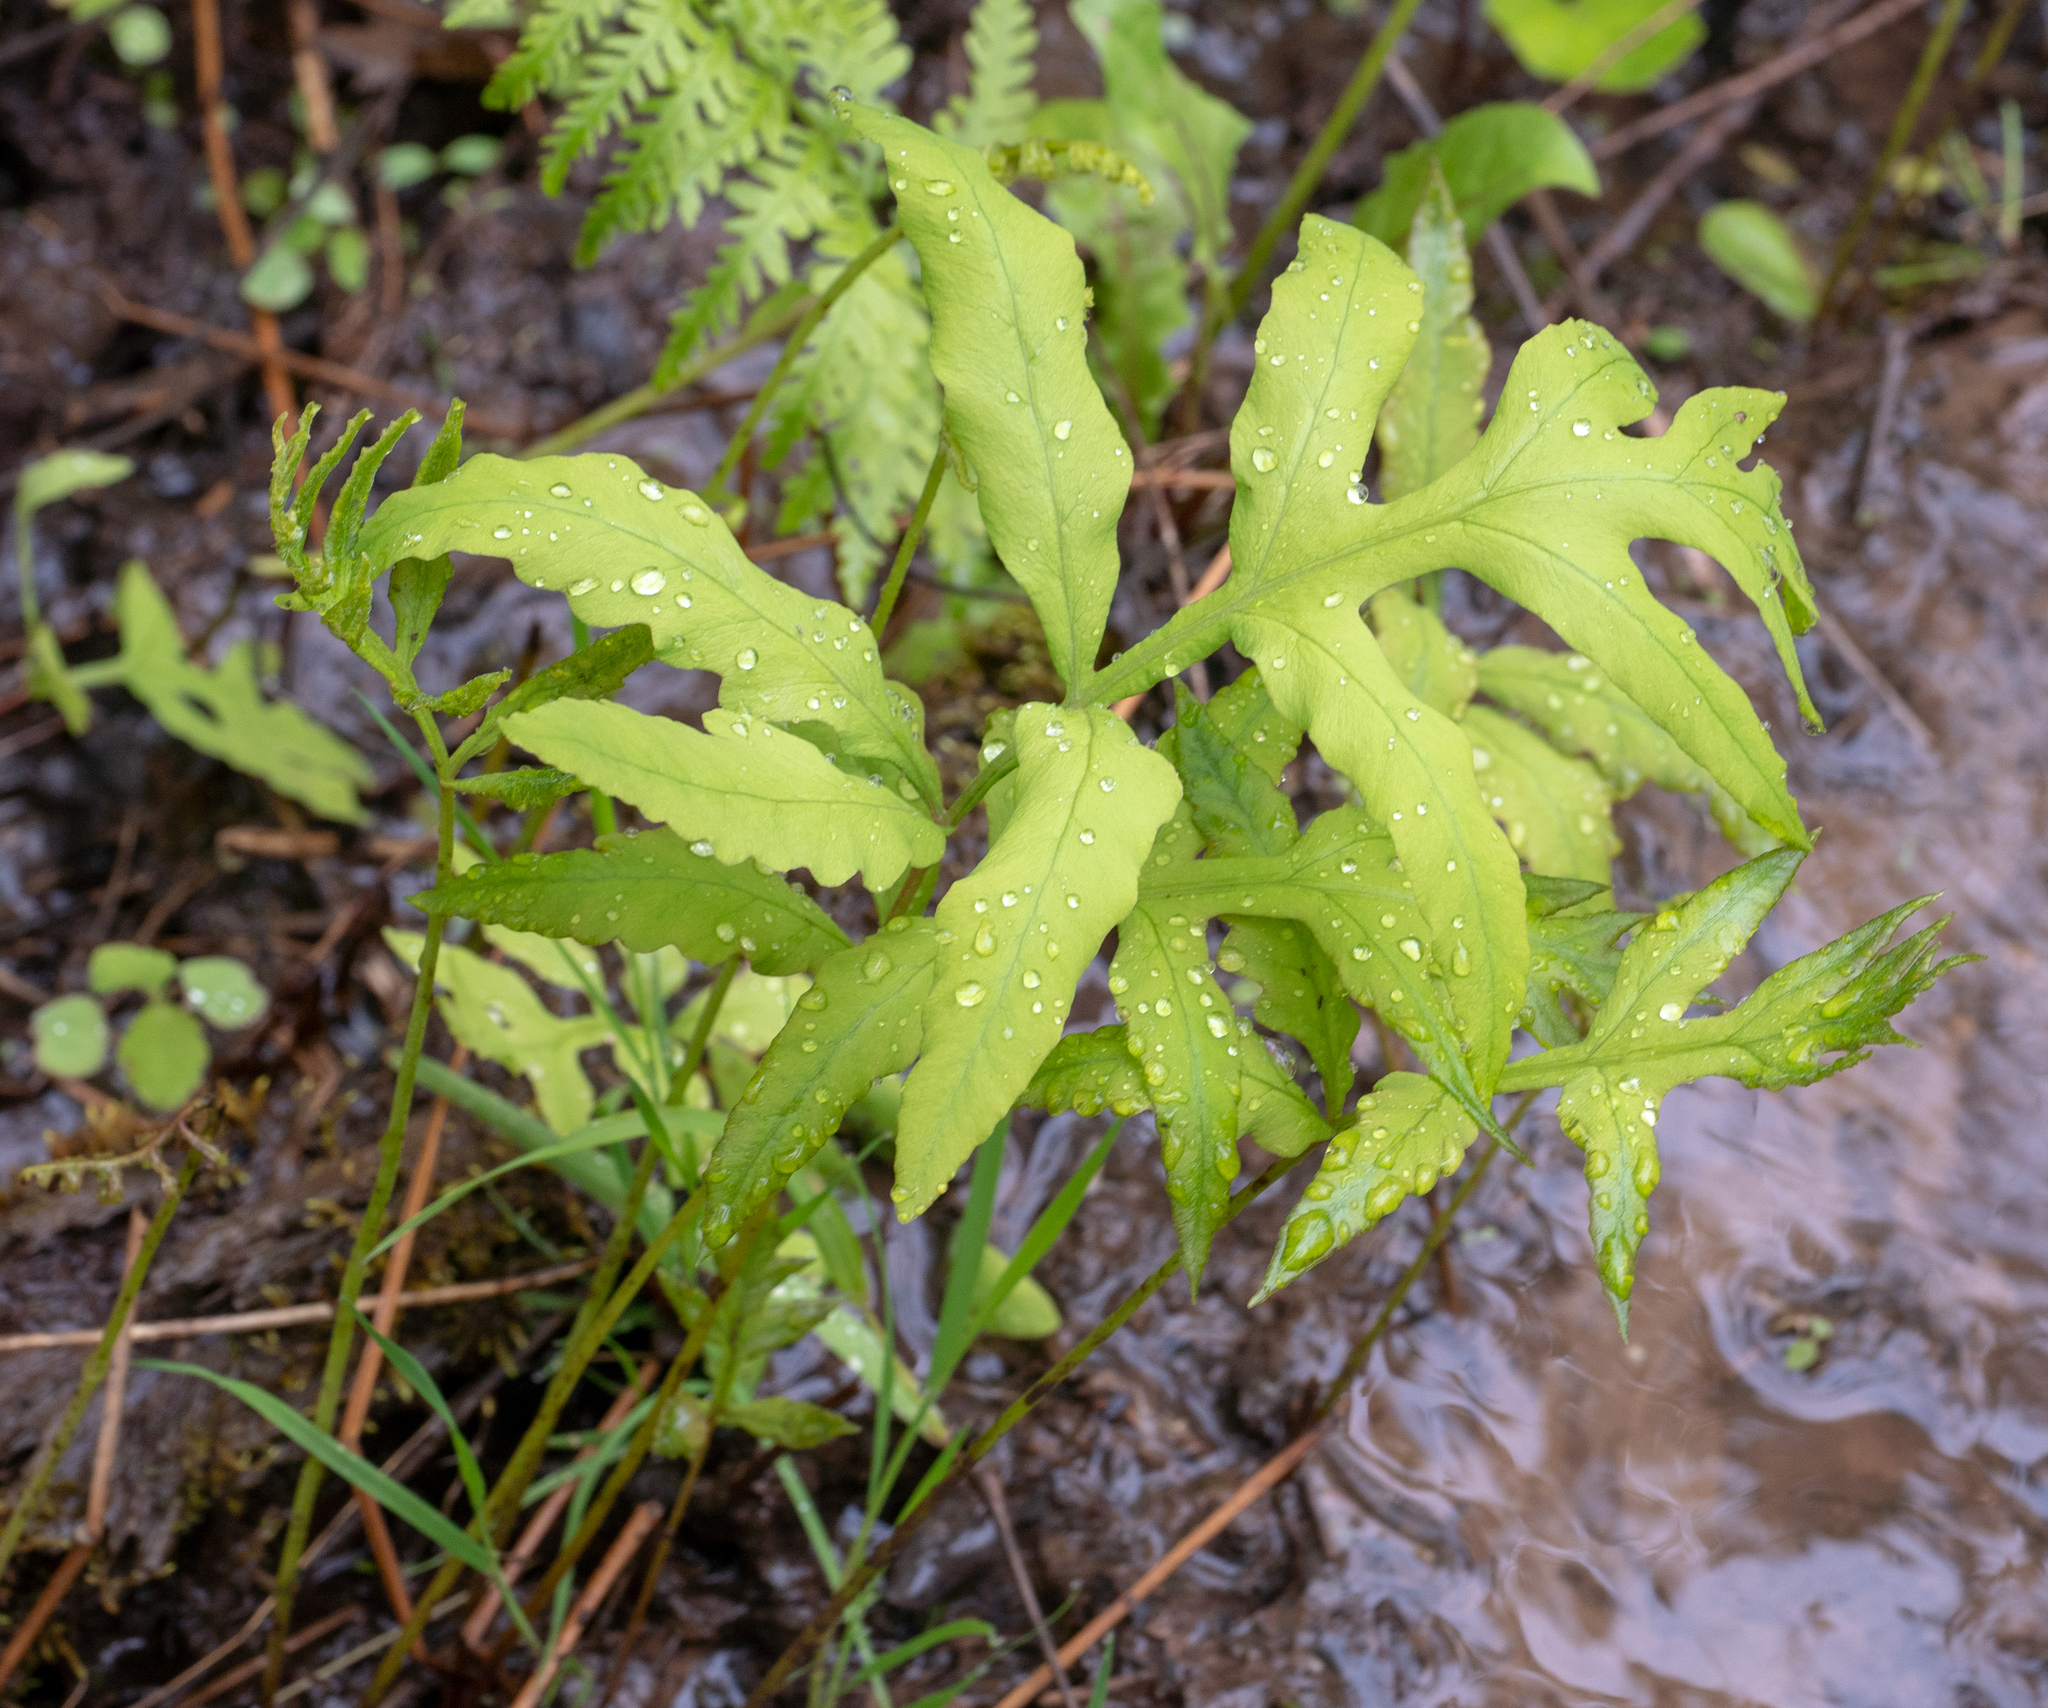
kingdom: Plantae
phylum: Tracheophyta
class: Polypodiopsida
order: Polypodiales
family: Onocleaceae
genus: Onoclea
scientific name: Onoclea sensibilis
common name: Sensitive fern
